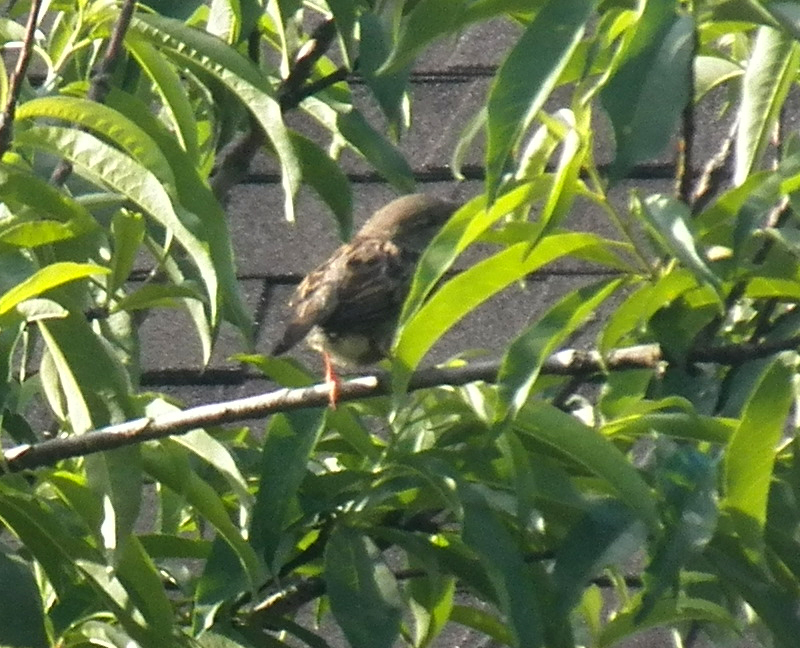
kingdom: Animalia
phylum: Chordata
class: Aves
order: Passeriformes
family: Passeridae
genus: Passer
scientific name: Passer domesticus
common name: House sparrow
